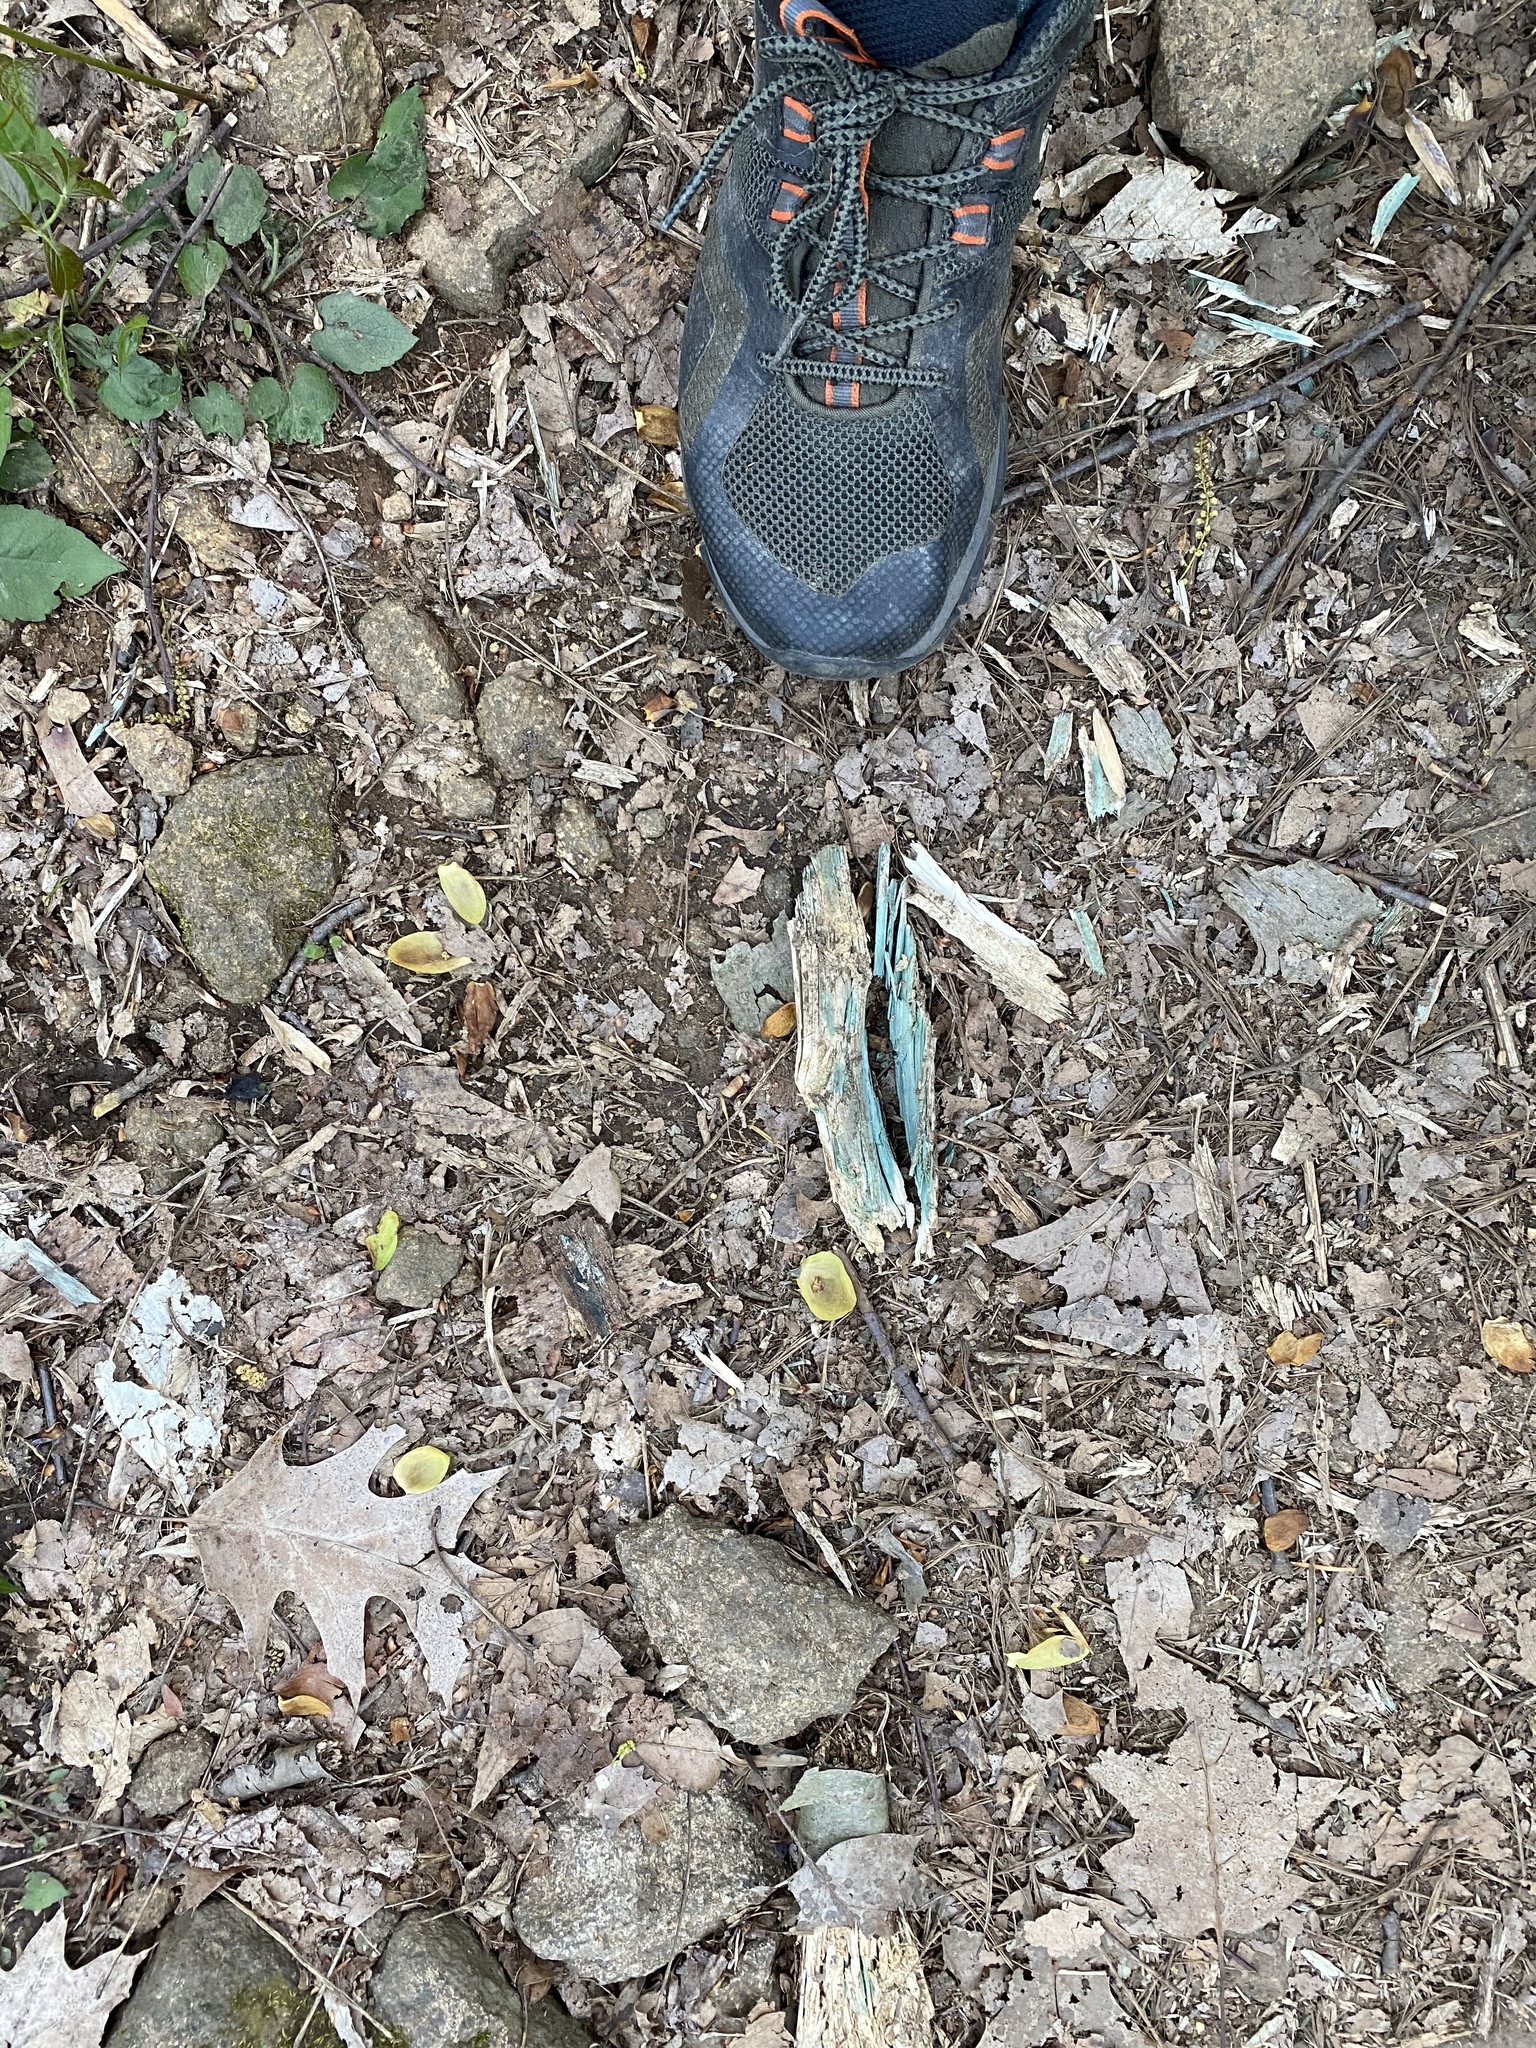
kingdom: Fungi
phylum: Ascomycota
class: Leotiomycetes
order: Helotiales
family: Chlorociboriaceae
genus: Chlorociboria
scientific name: Chlorociboria
